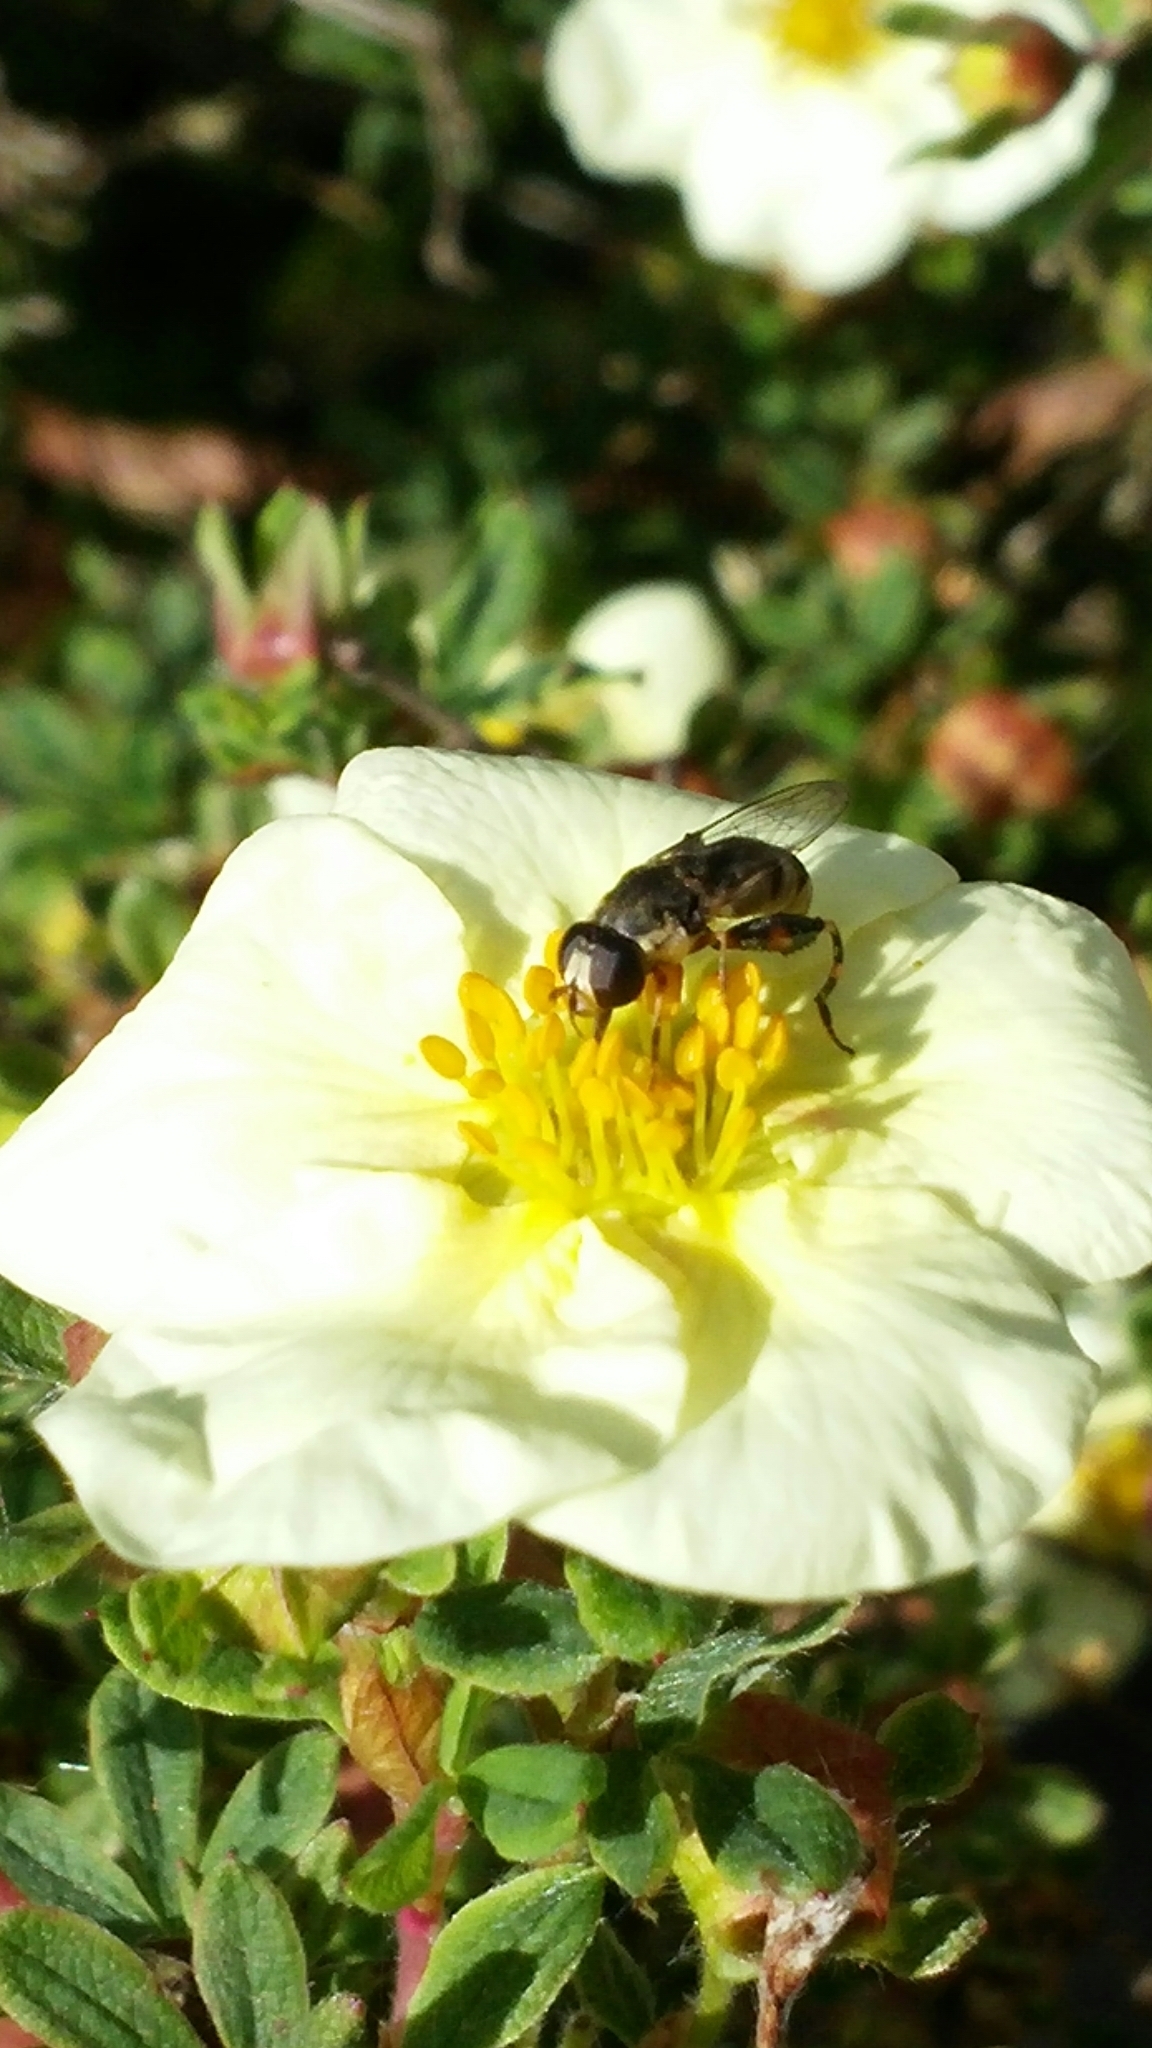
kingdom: Animalia
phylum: Arthropoda
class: Insecta
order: Diptera
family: Syrphidae
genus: Syritta
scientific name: Syritta pipiens
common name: Hover fly
